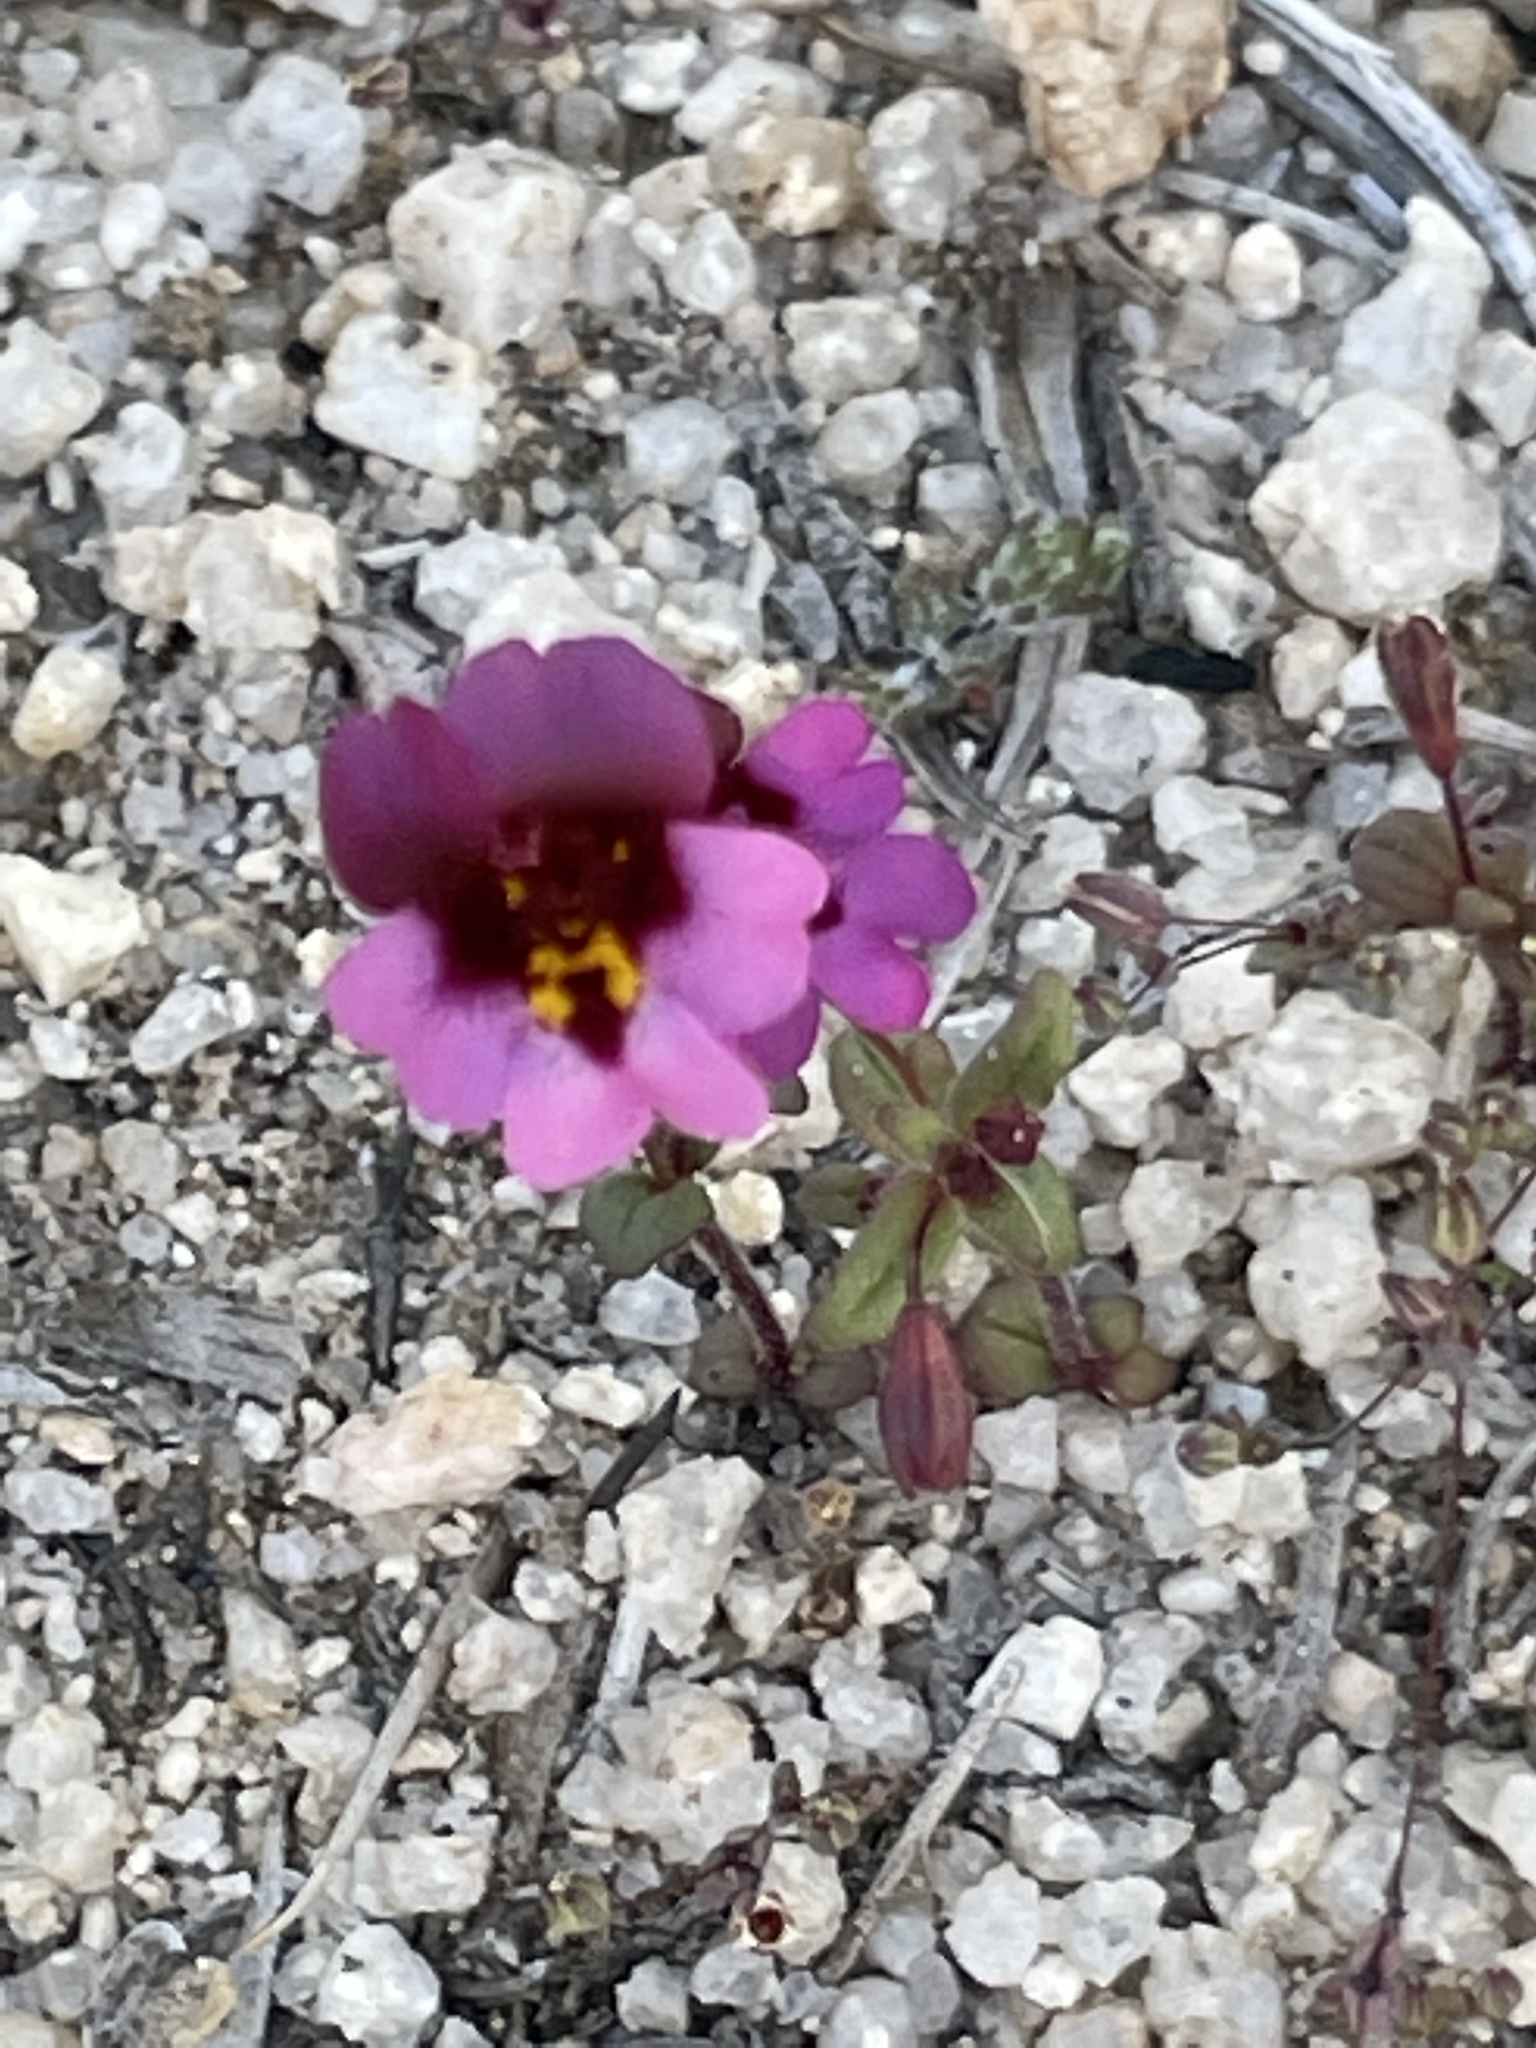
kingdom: Plantae
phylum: Tracheophyta
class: Magnoliopsida
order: Lamiales
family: Phrymaceae
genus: Erythranthe
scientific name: Erythranthe purpurea
